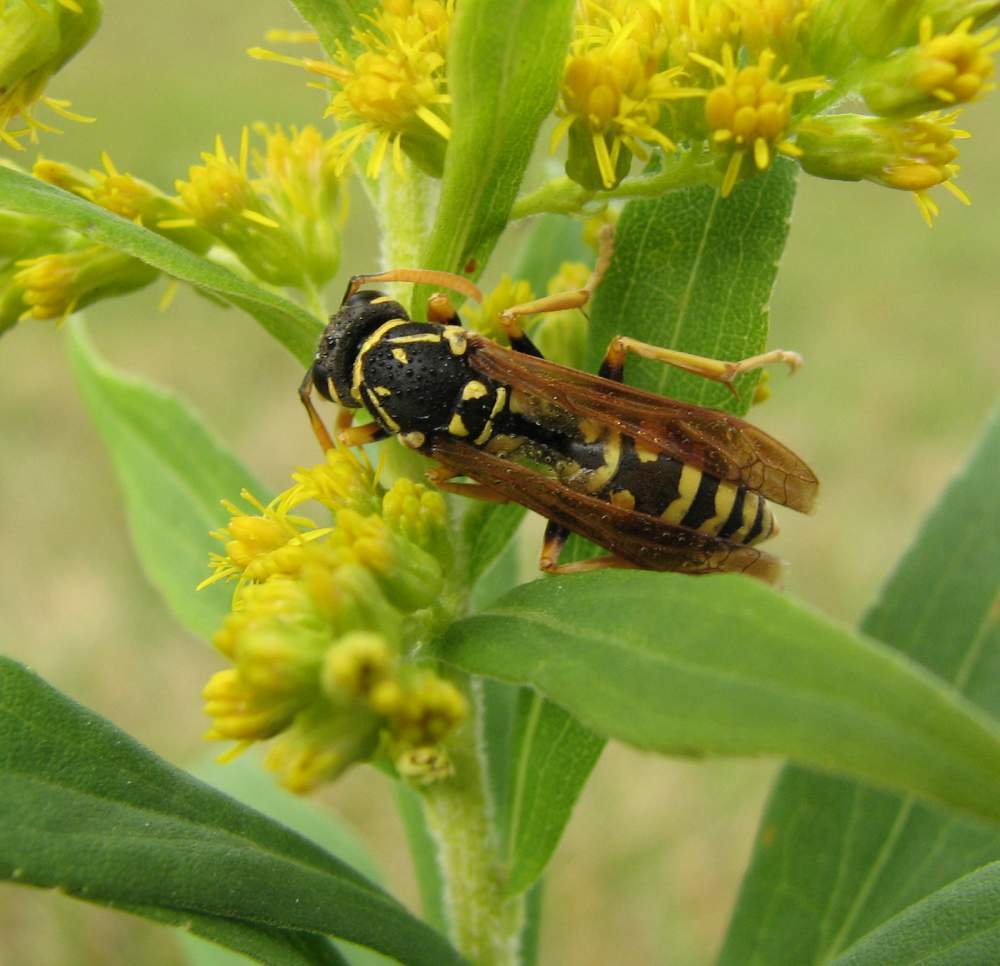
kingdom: Animalia
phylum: Arthropoda
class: Insecta
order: Hymenoptera
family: Eumenidae
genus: Polistes
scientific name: Polistes dominula
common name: Paper wasp
